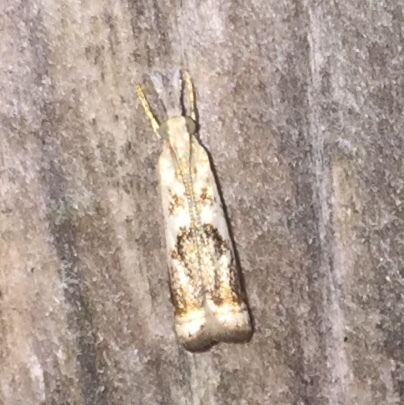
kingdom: Animalia
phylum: Arthropoda
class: Insecta
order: Lepidoptera
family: Crambidae
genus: Microcrambus
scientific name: Microcrambus elegans
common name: Elegant grass-veneer
